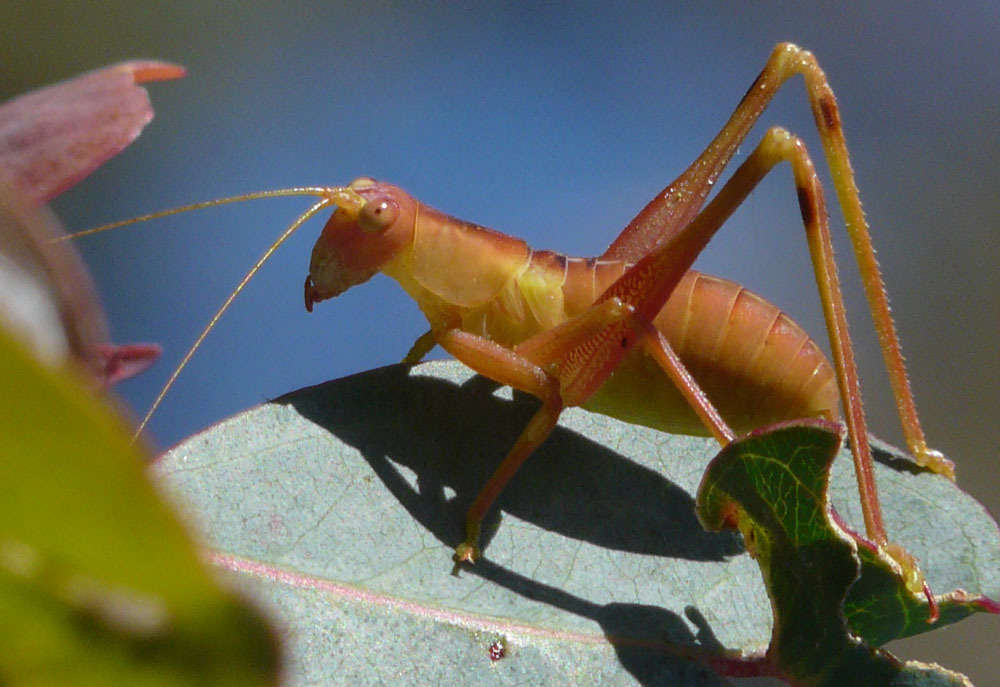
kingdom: Animalia
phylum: Arthropoda
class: Insecta
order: Orthoptera
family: Tettigoniidae
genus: Torbia
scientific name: Torbia perficita
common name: Giant torbia
